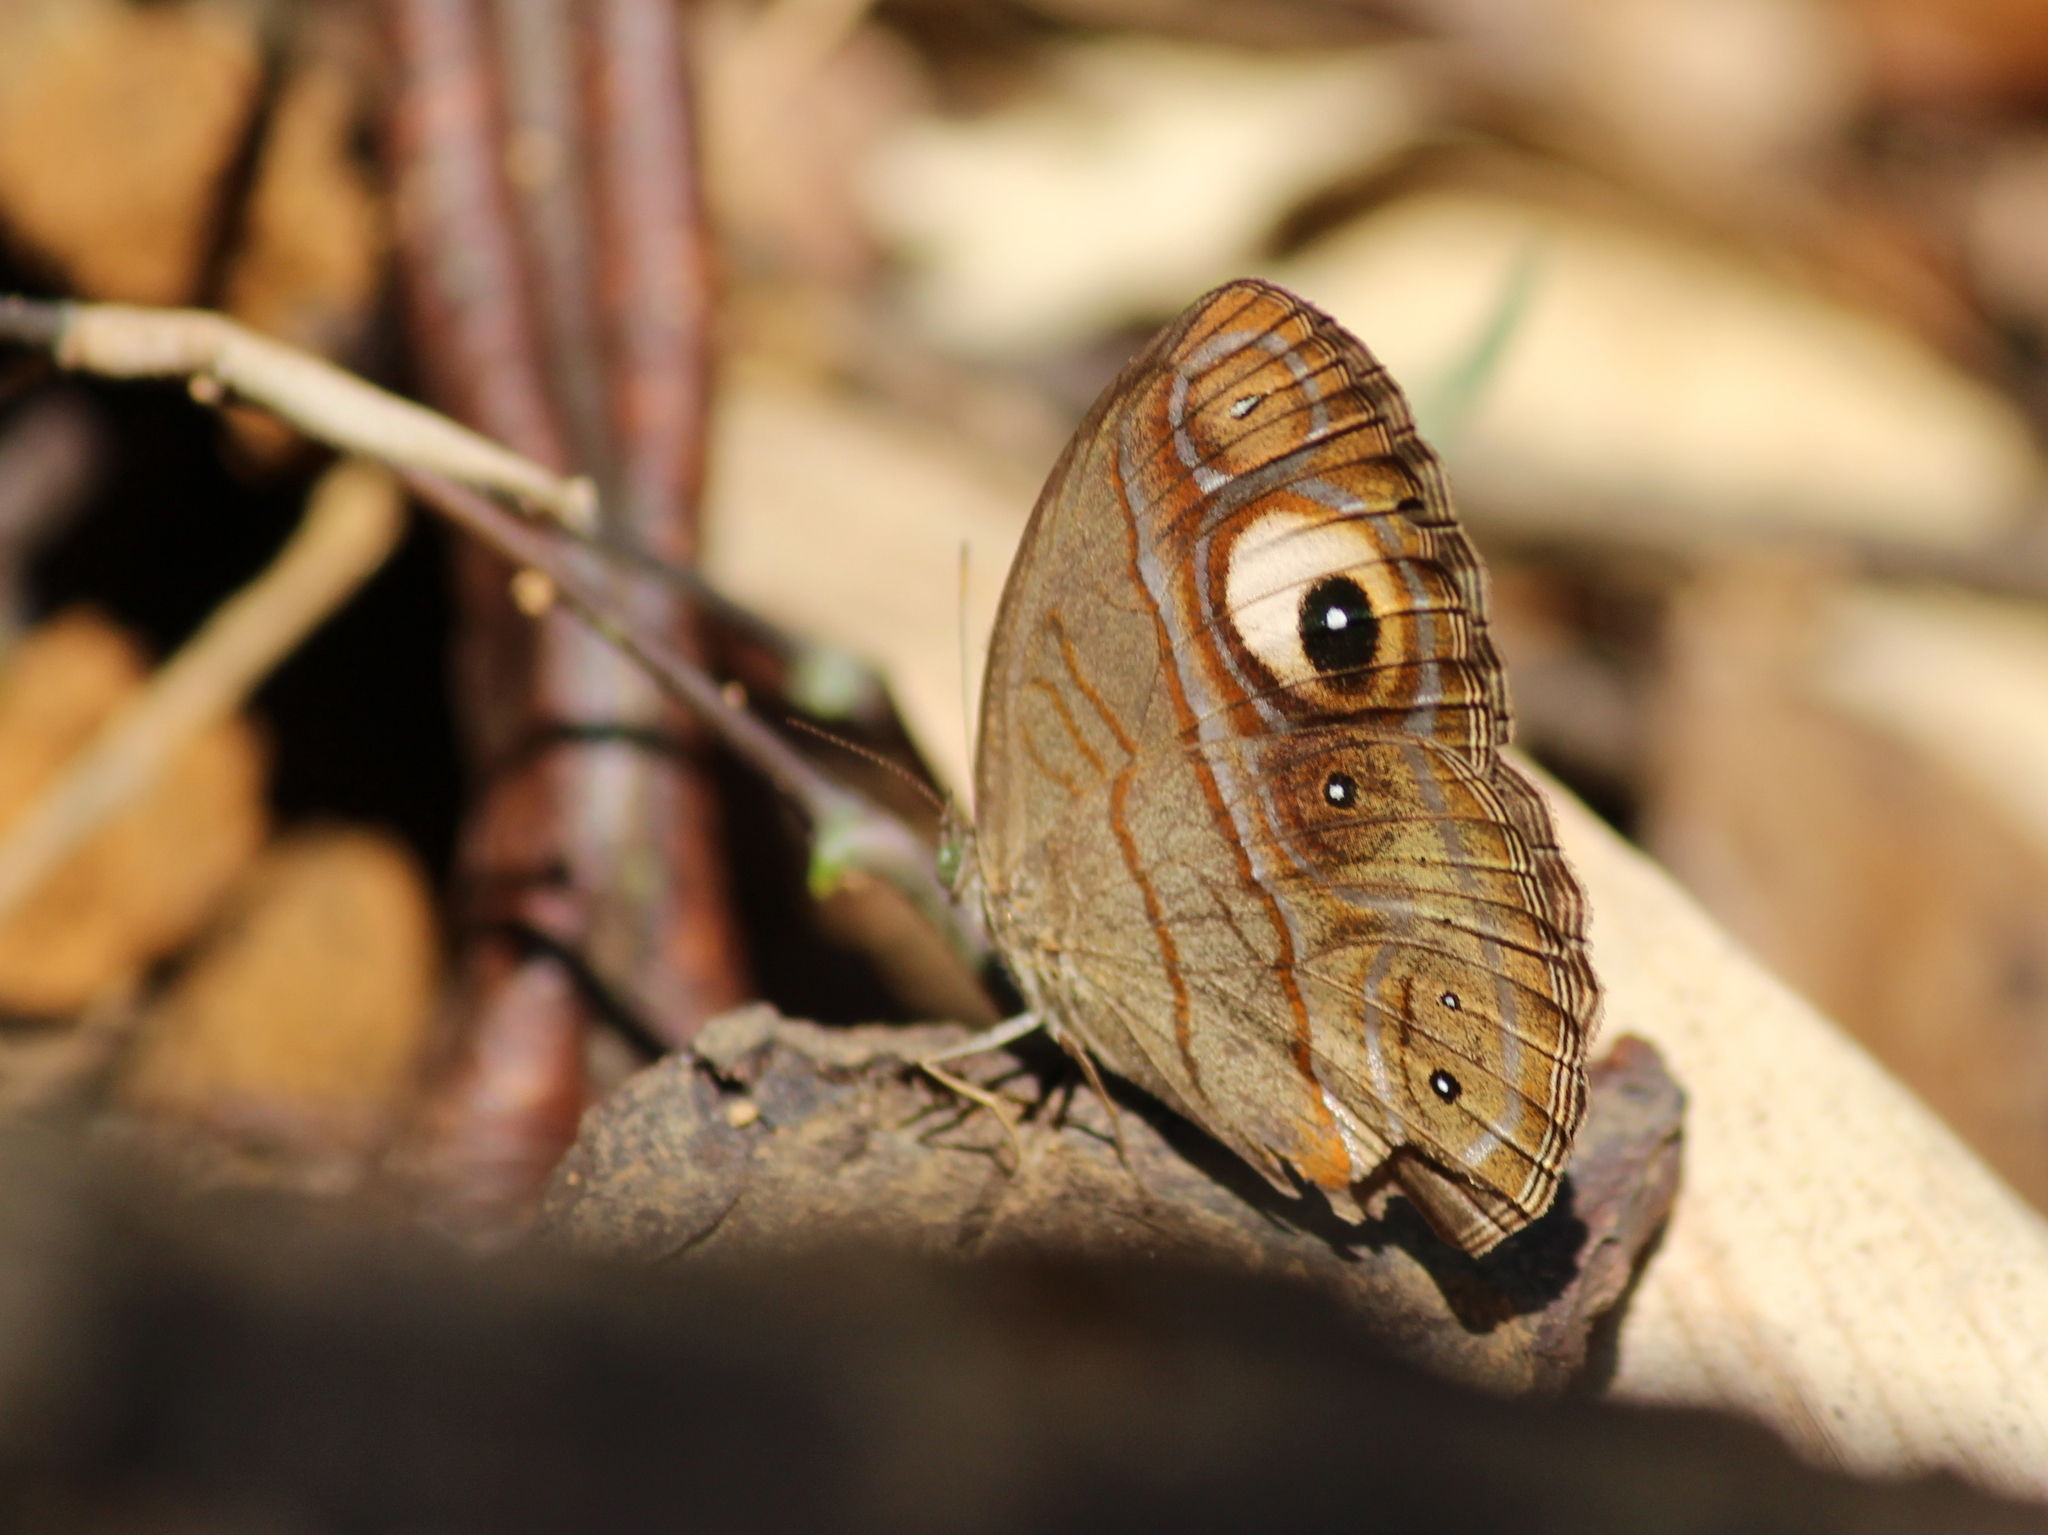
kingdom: Animalia
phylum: Arthropoda
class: Insecta
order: Lepidoptera
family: Nymphalidae
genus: Mycalesis
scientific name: Mycalesis patnia
